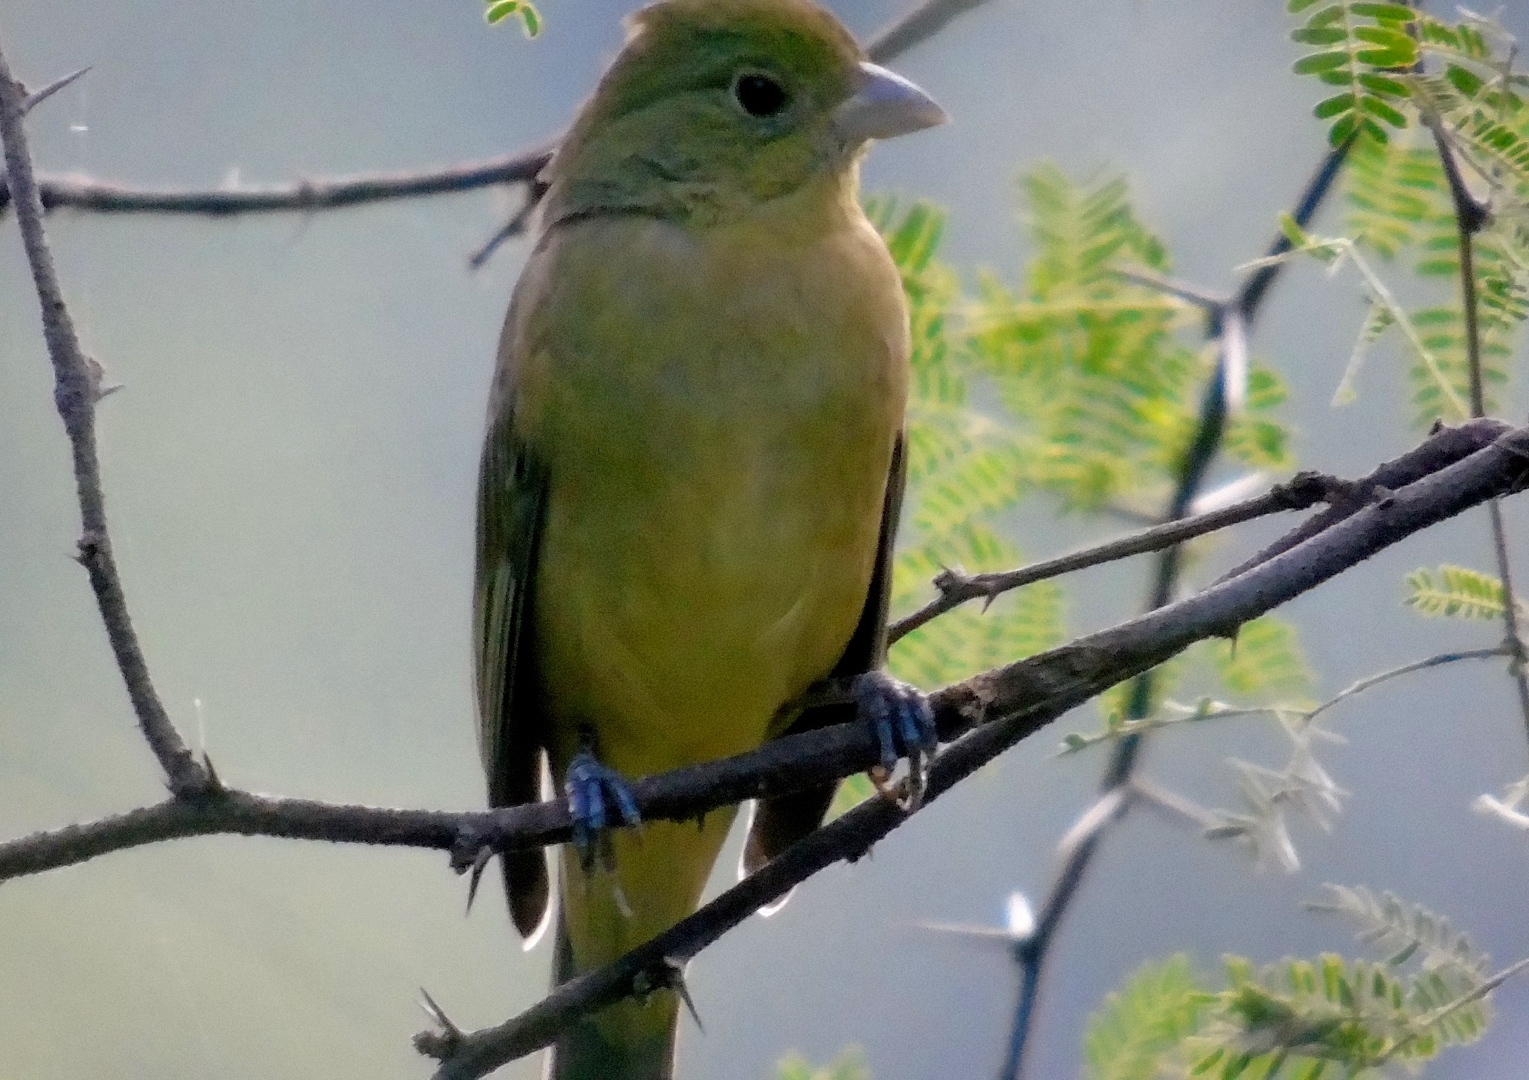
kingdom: Animalia
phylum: Chordata
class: Aves
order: Passeriformes
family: Cardinalidae
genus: Passerina
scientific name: Passerina ciris
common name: Painted bunting
